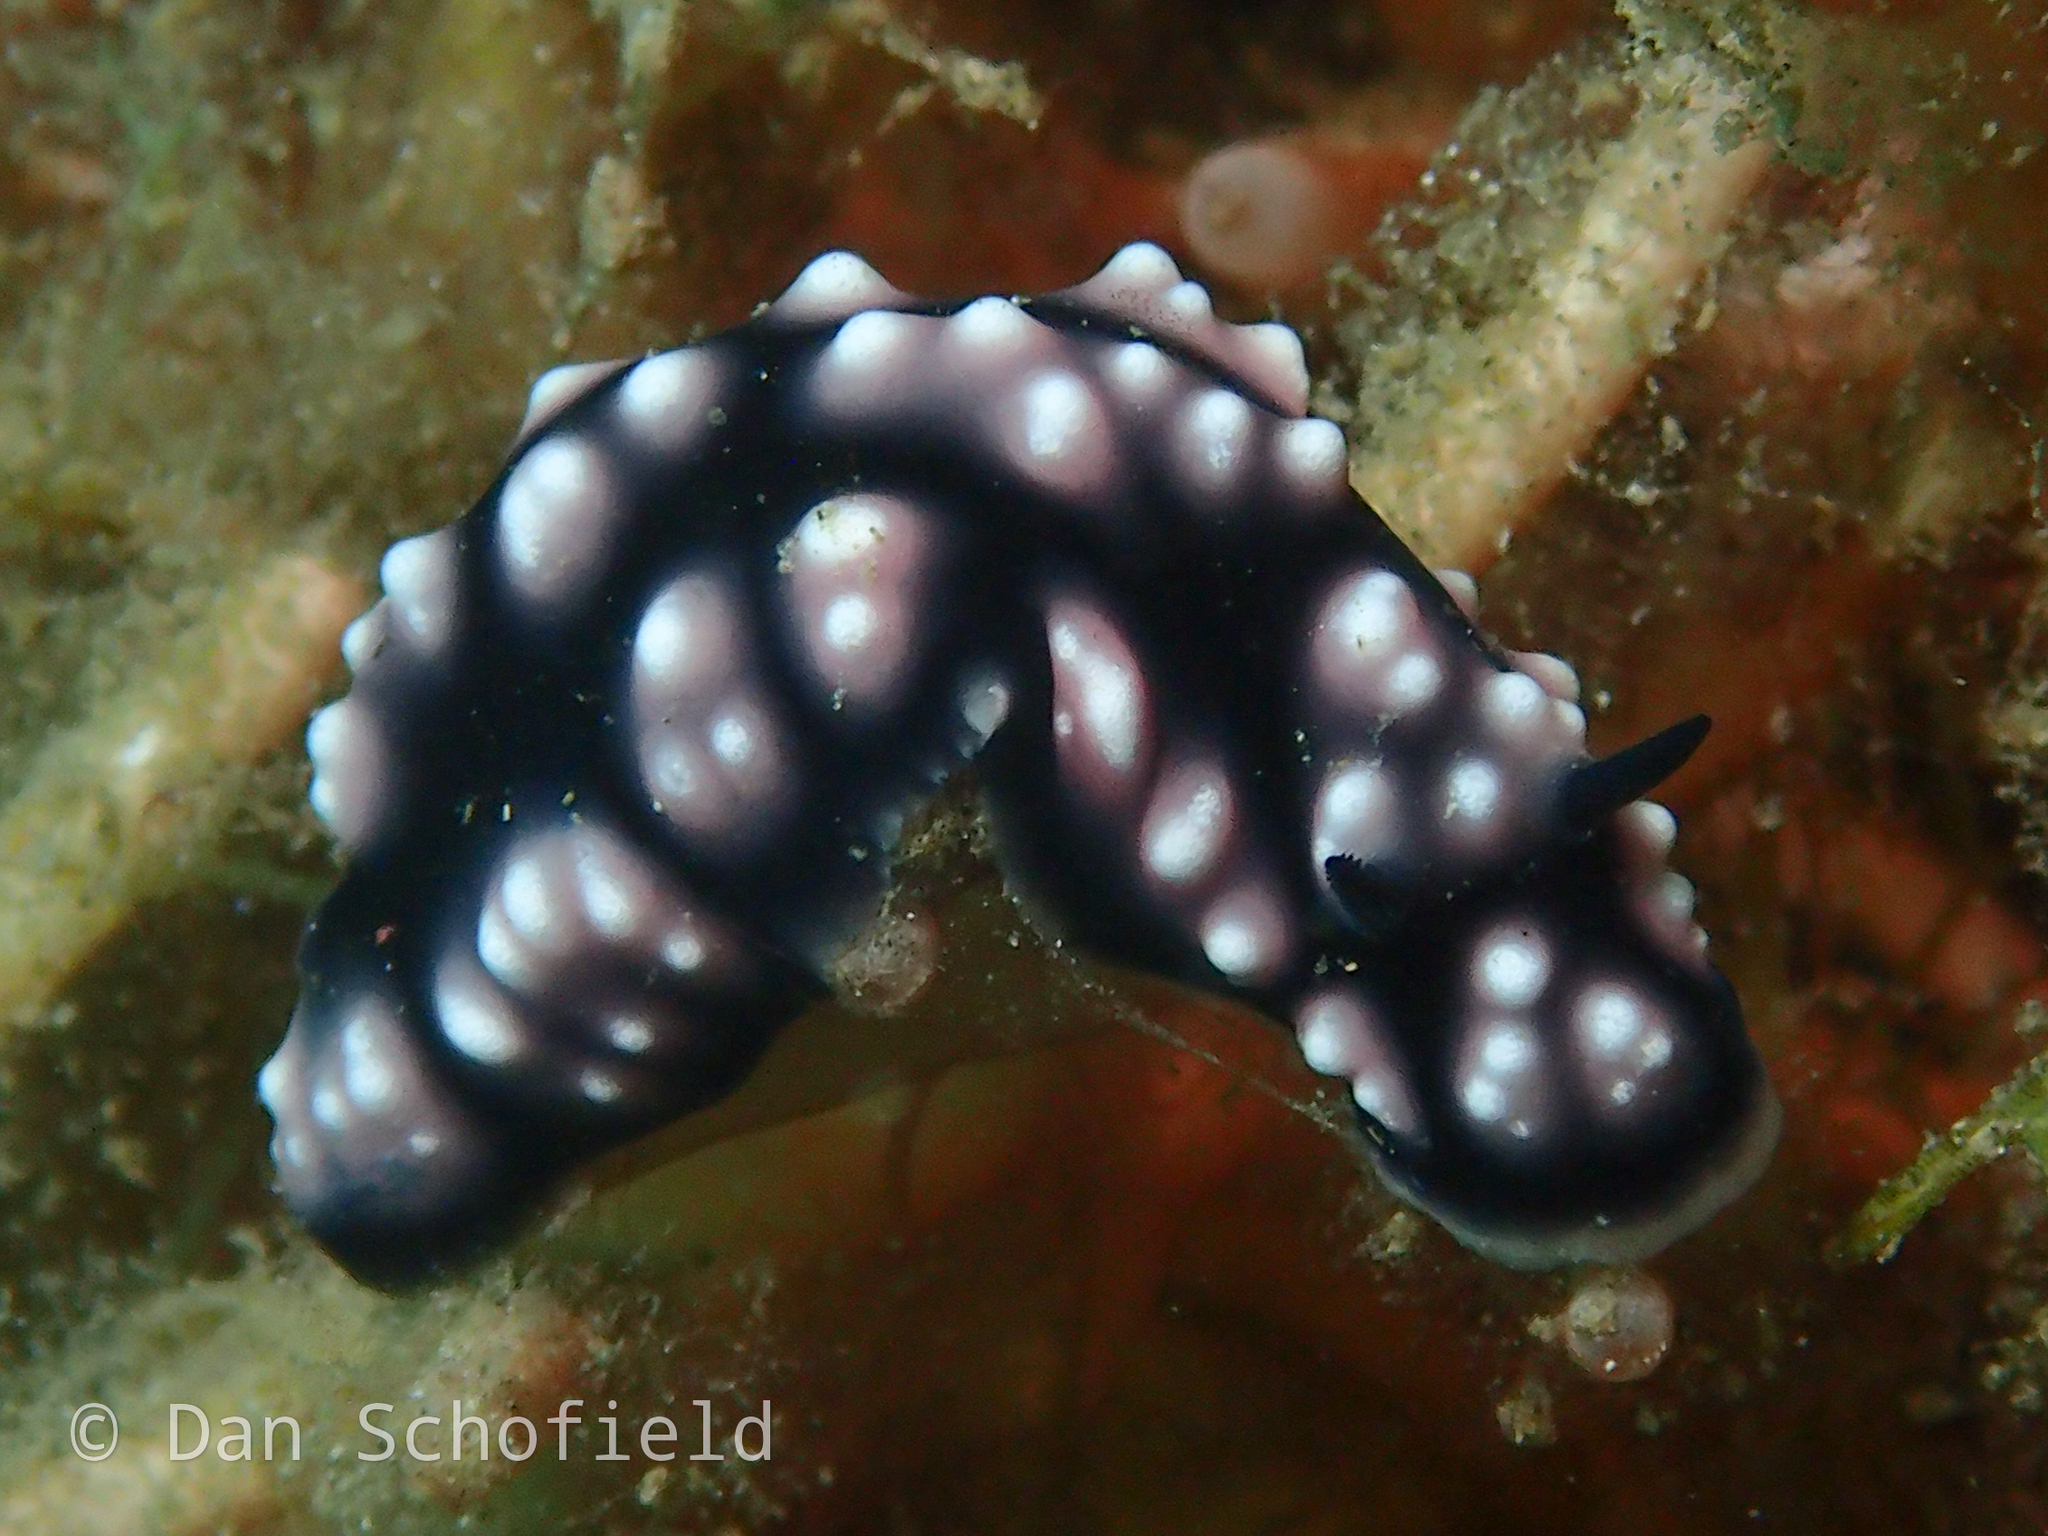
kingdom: Animalia
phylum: Mollusca
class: Gastropoda
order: Nudibranchia
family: Phyllidiidae
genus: Phyllidiella
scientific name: Phyllidiella pustulosa
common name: Pustular phyllidia
